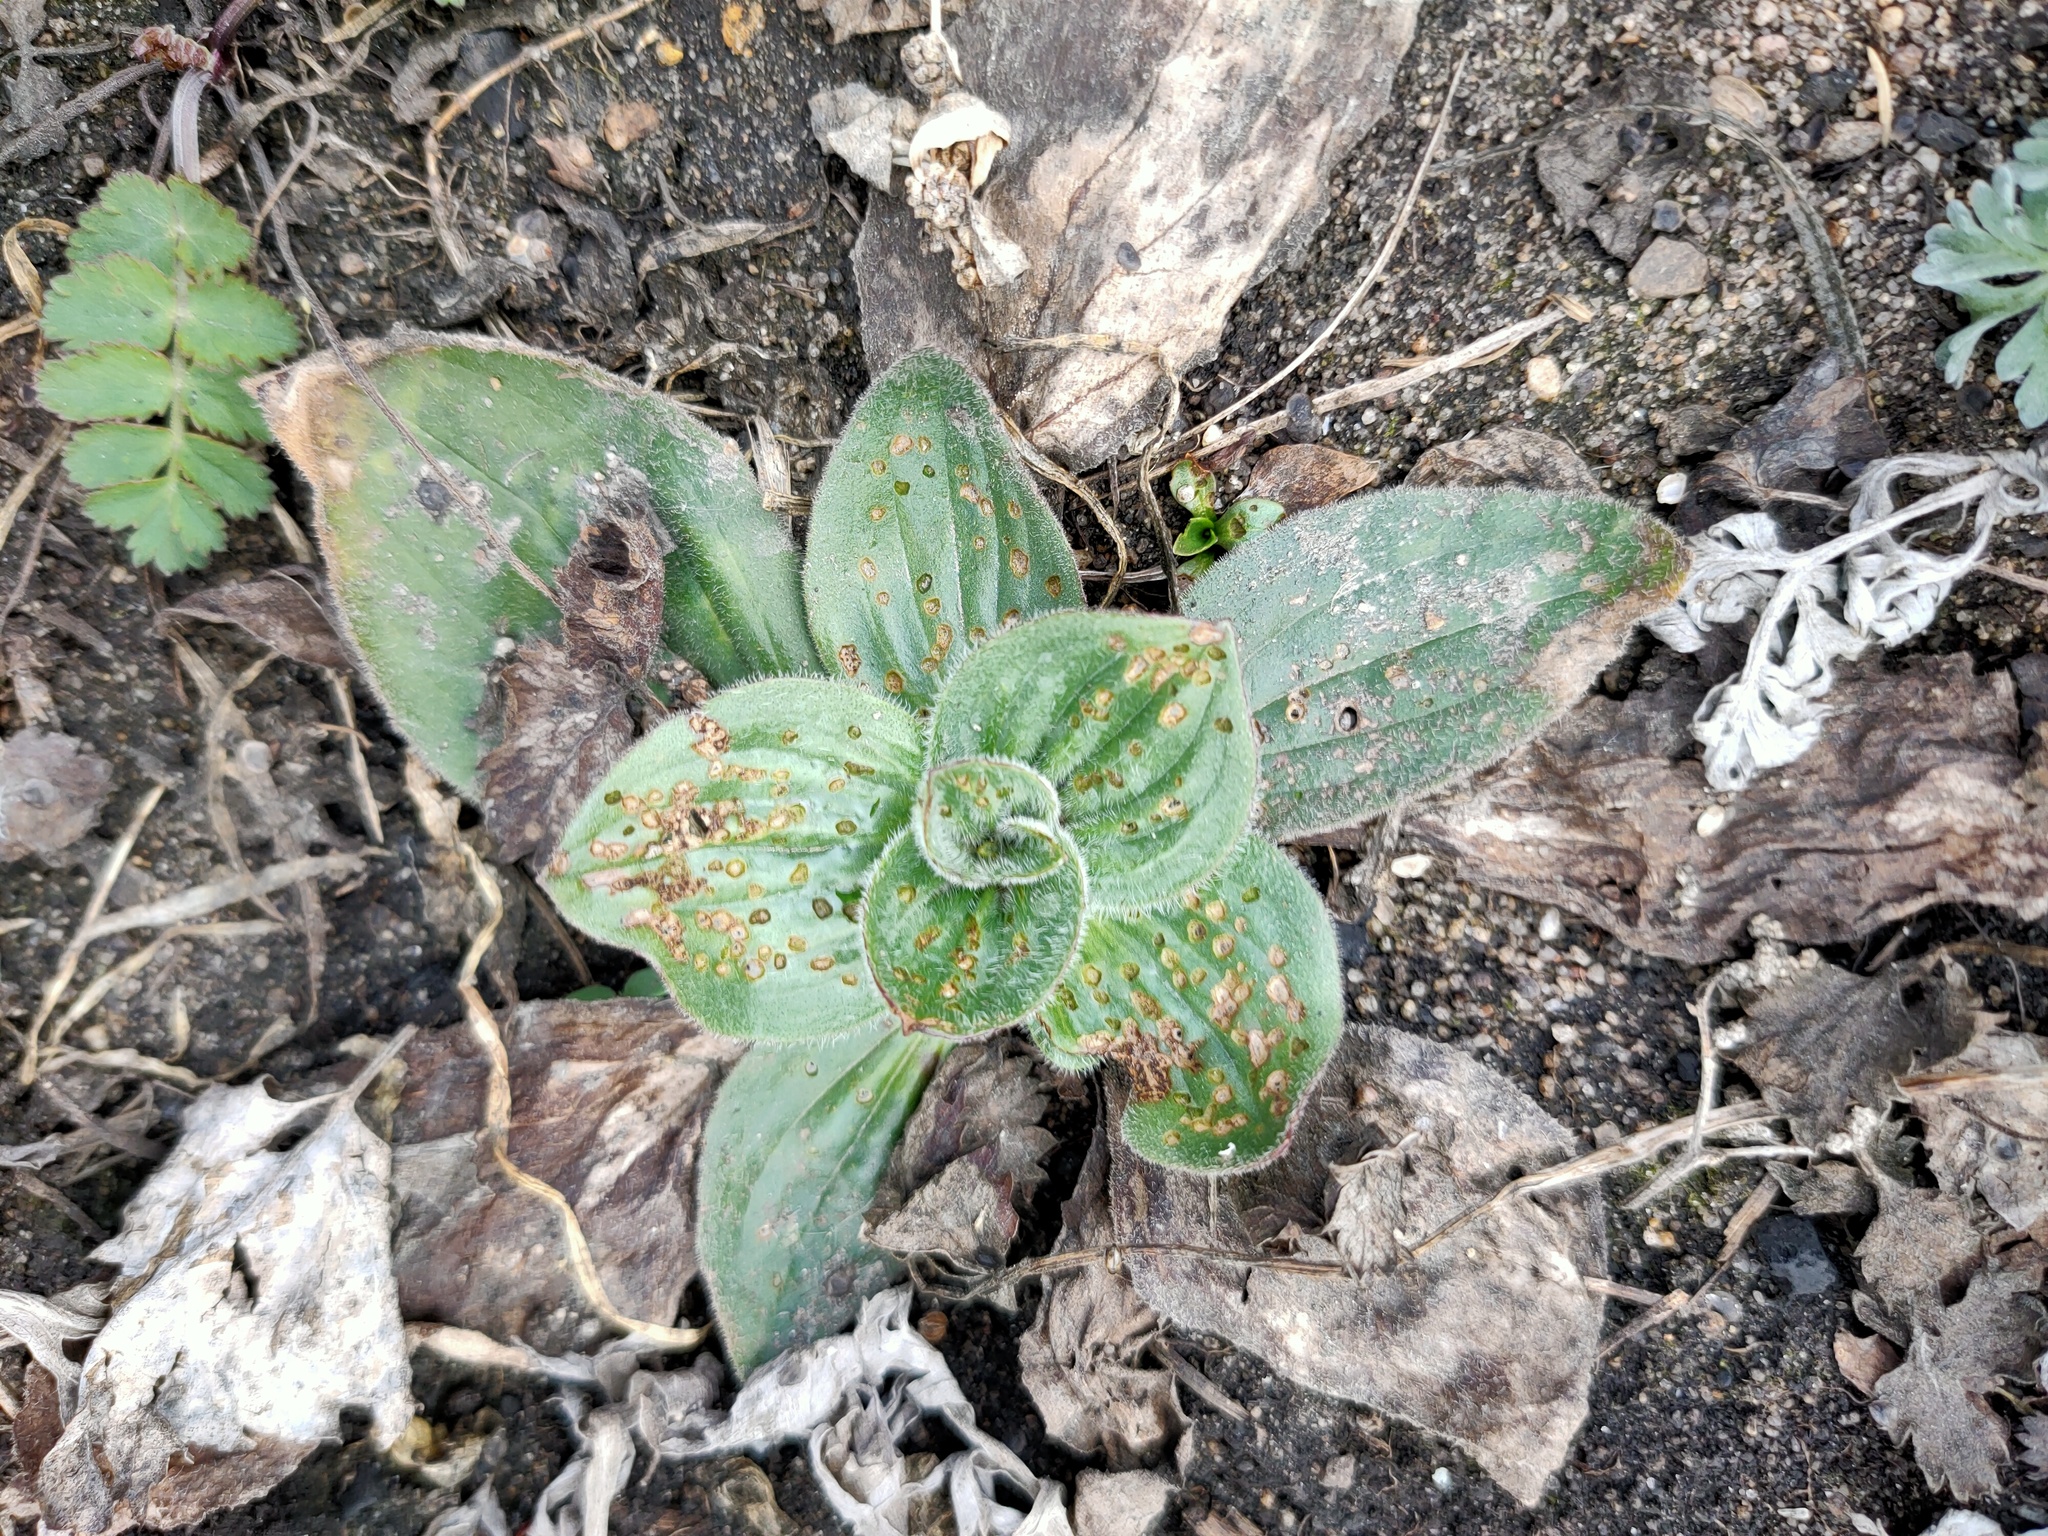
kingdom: Plantae
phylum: Tracheophyta
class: Magnoliopsida
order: Lamiales
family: Plantaginaceae
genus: Plantago
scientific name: Plantago media
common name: Hoary plantain
